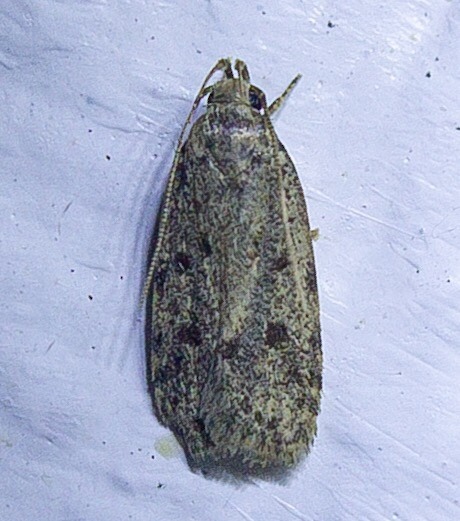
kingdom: Animalia
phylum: Arthropoda
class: Insecta
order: Lepidoptera
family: Autostichidae
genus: Stoeberhinus
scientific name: Stoeberhinus testaceus
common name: Moth
